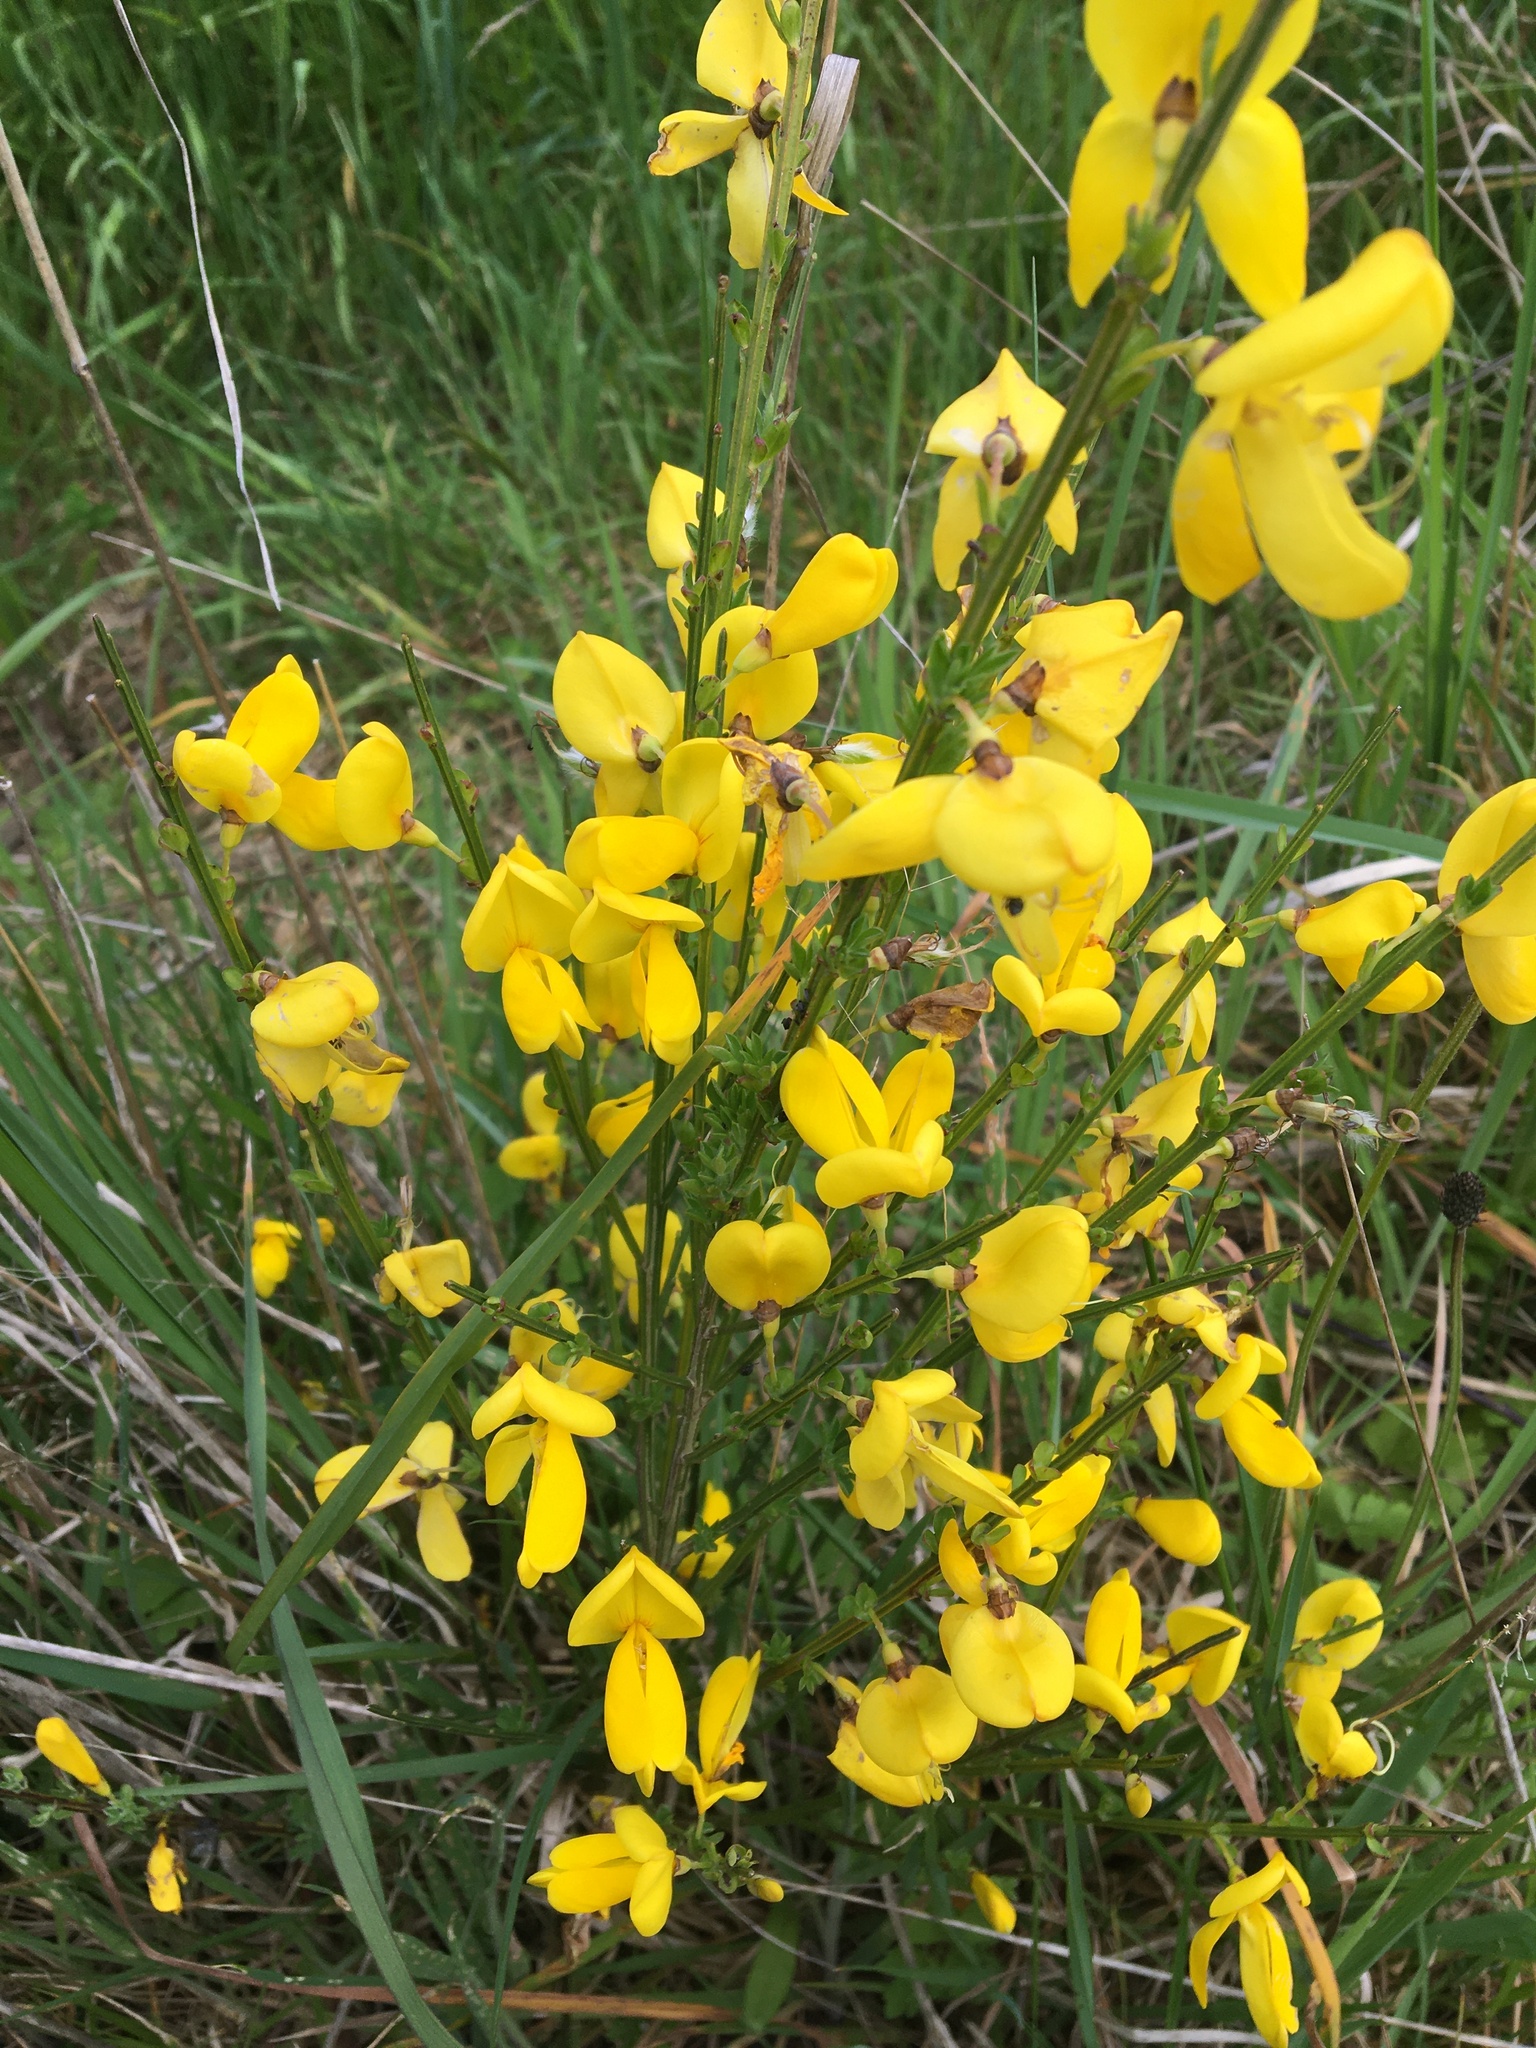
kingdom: Plantae
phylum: Tracheophyta
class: Magnoliopsida
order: Fabales
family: Fabaceae
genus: Cytisus
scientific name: Cytisus scoparius
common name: Scotch broom
